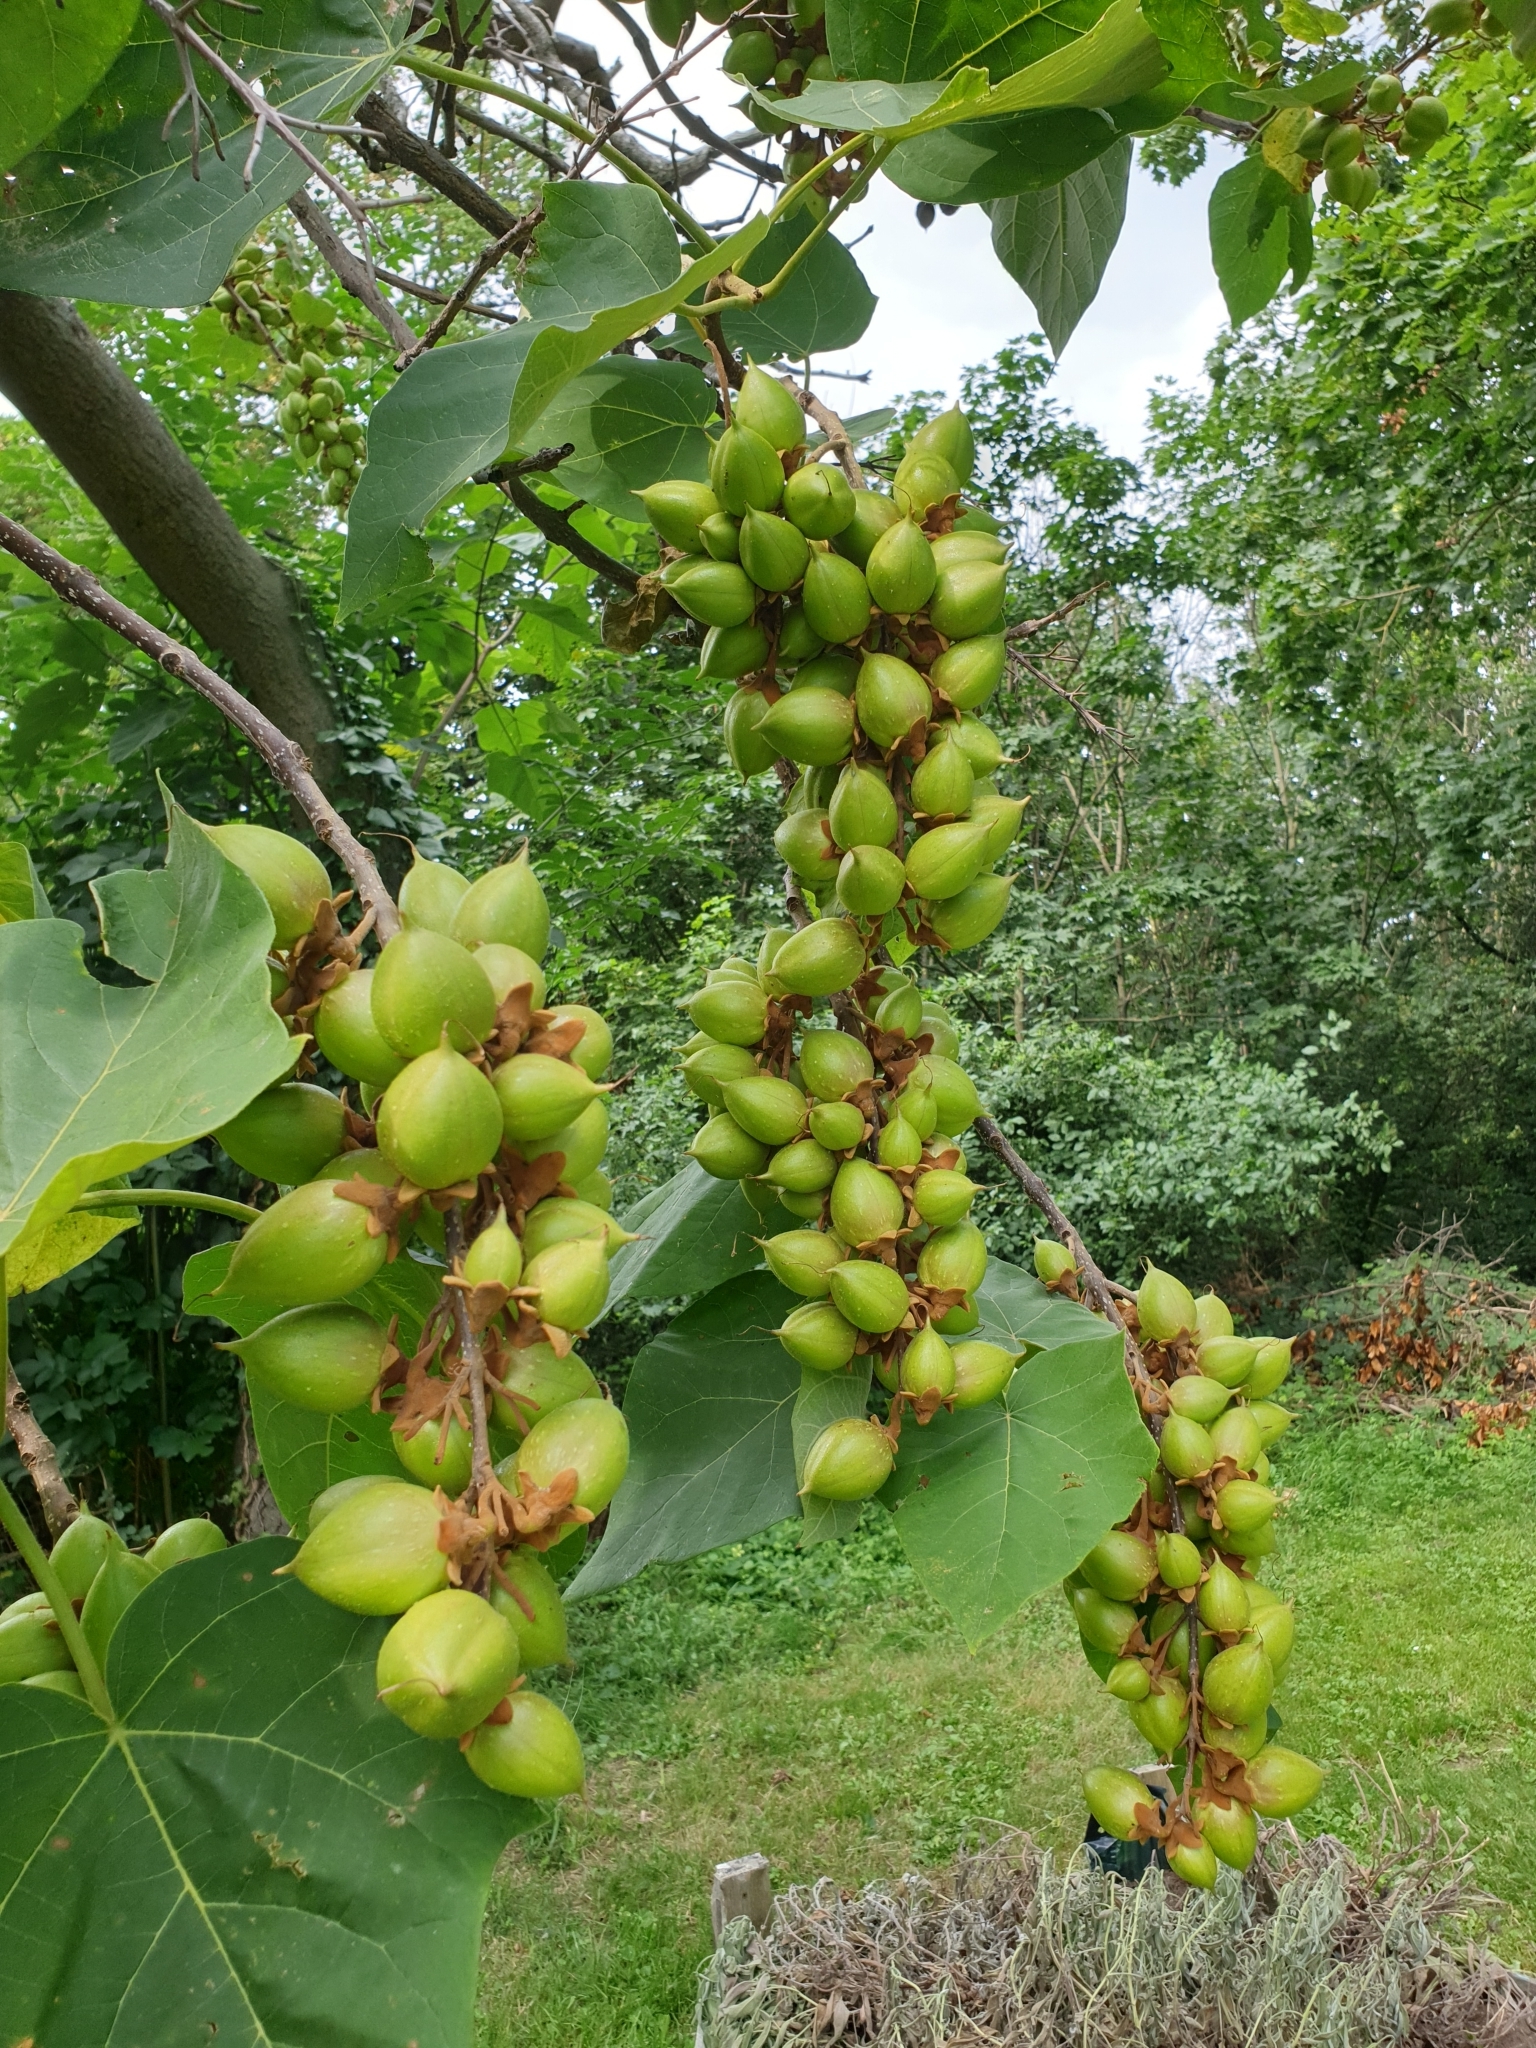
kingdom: Plantae
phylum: Tracheophyta
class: Magnoliopsida
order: Lamiales
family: Paulowniaceae
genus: Paulownia
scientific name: Paulownia tomentosa
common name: Foxglove-tree
